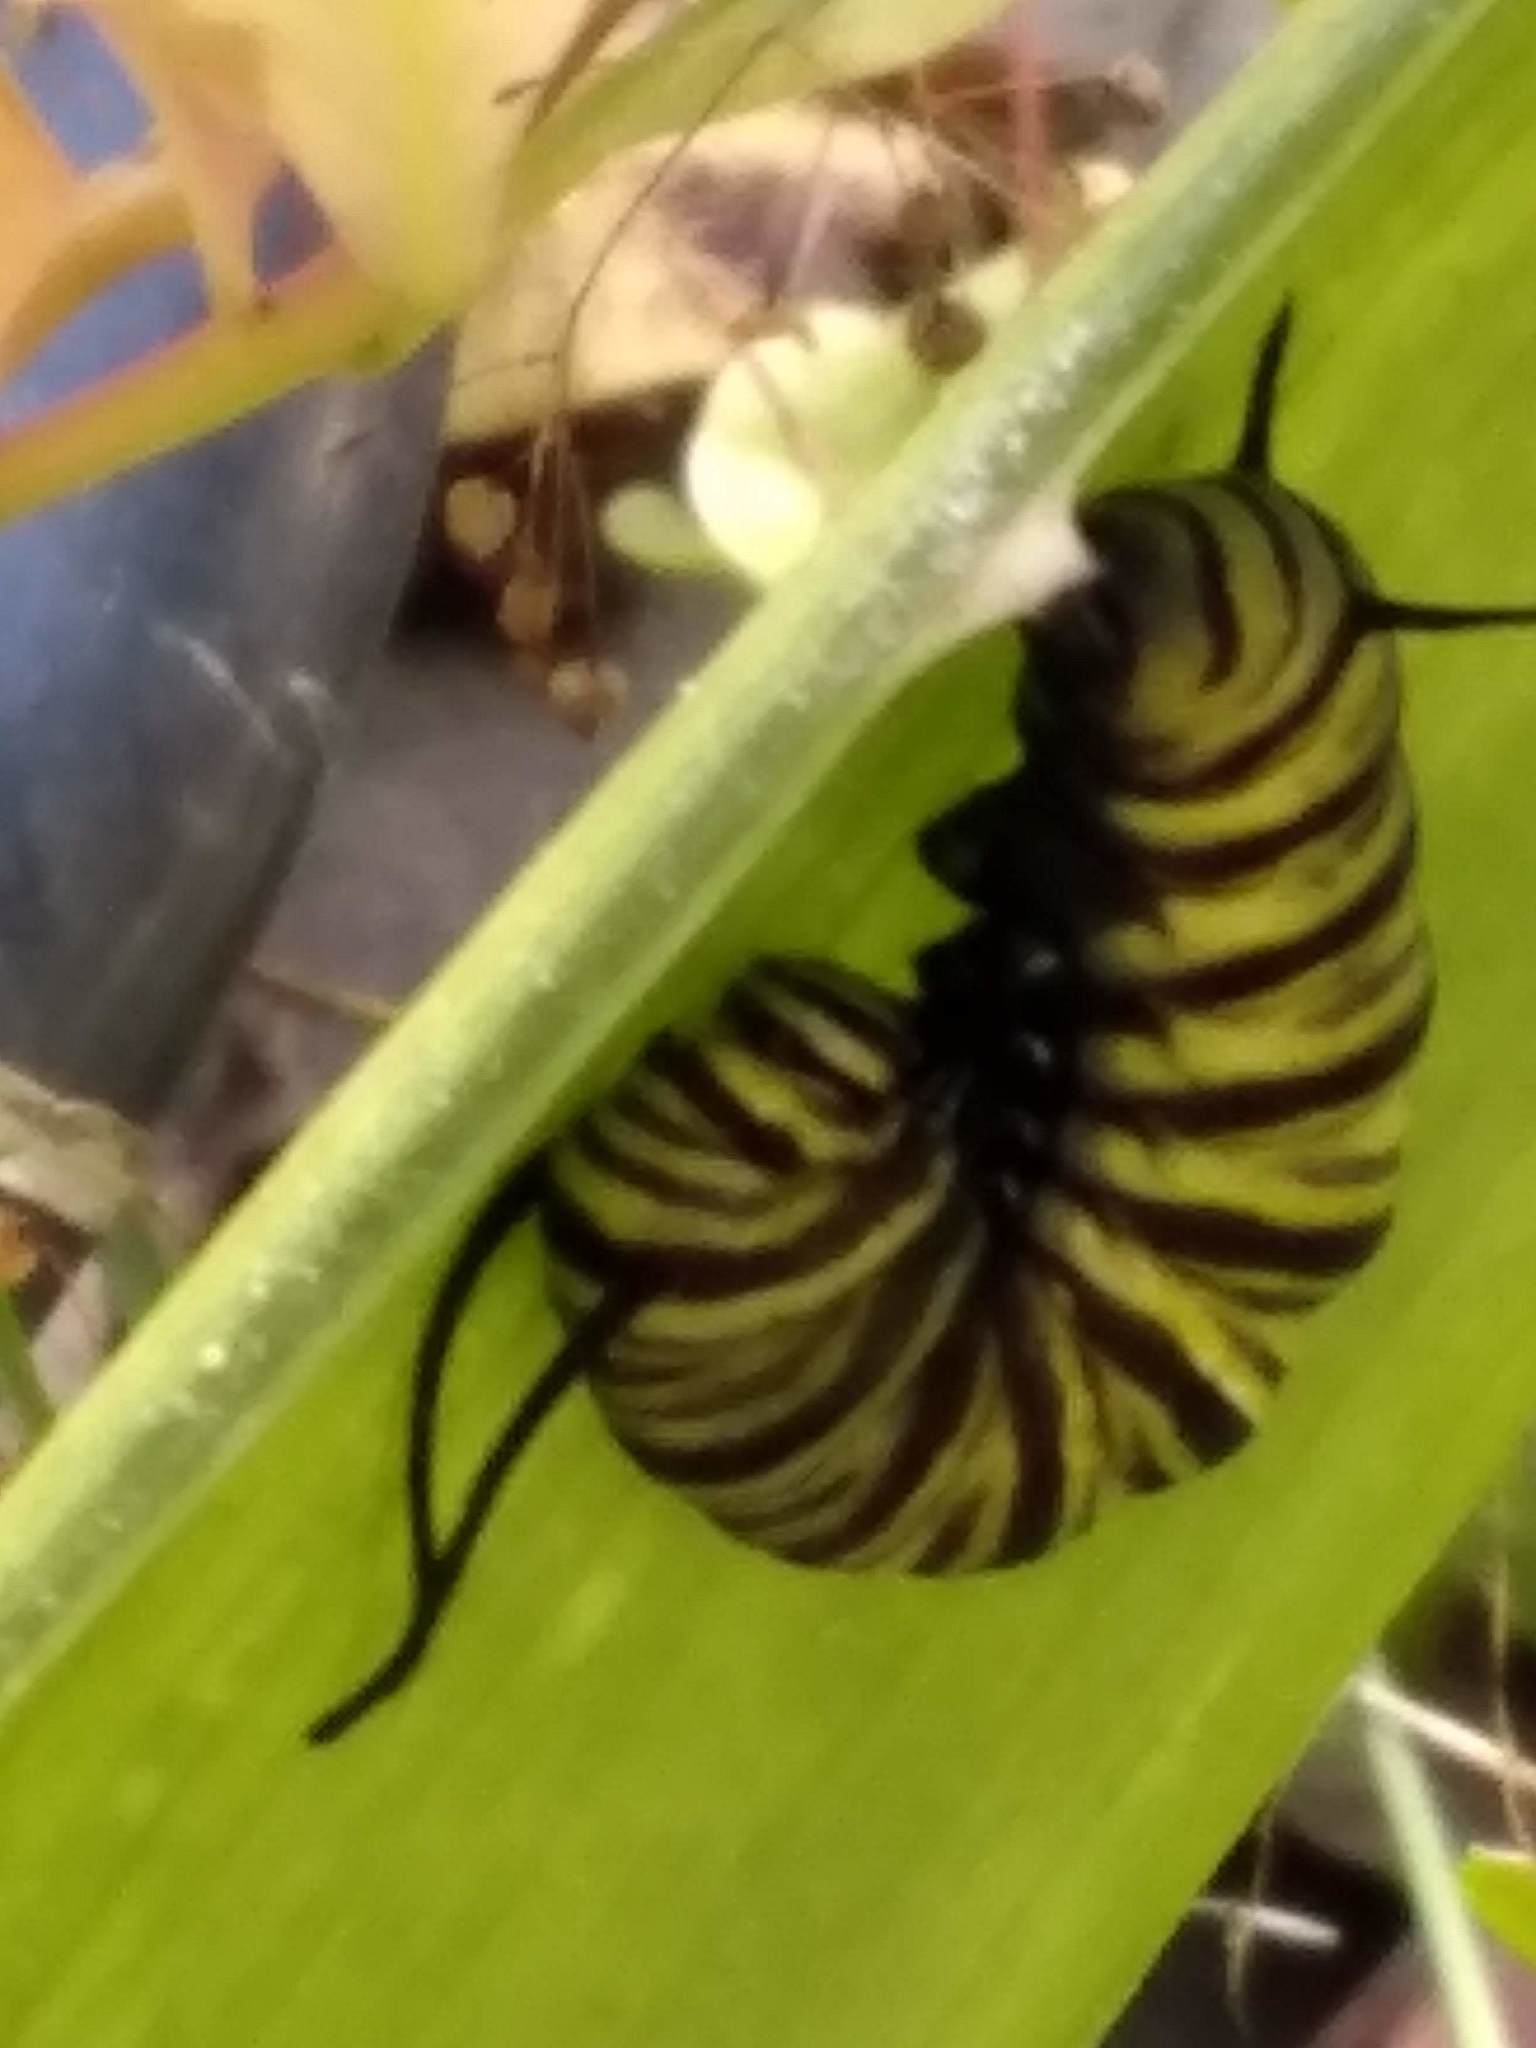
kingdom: Animalia
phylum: Arthropoda
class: Insecta
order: Lepidoptera
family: Nymphalidae
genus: Danaus
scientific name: Danaus erippus
